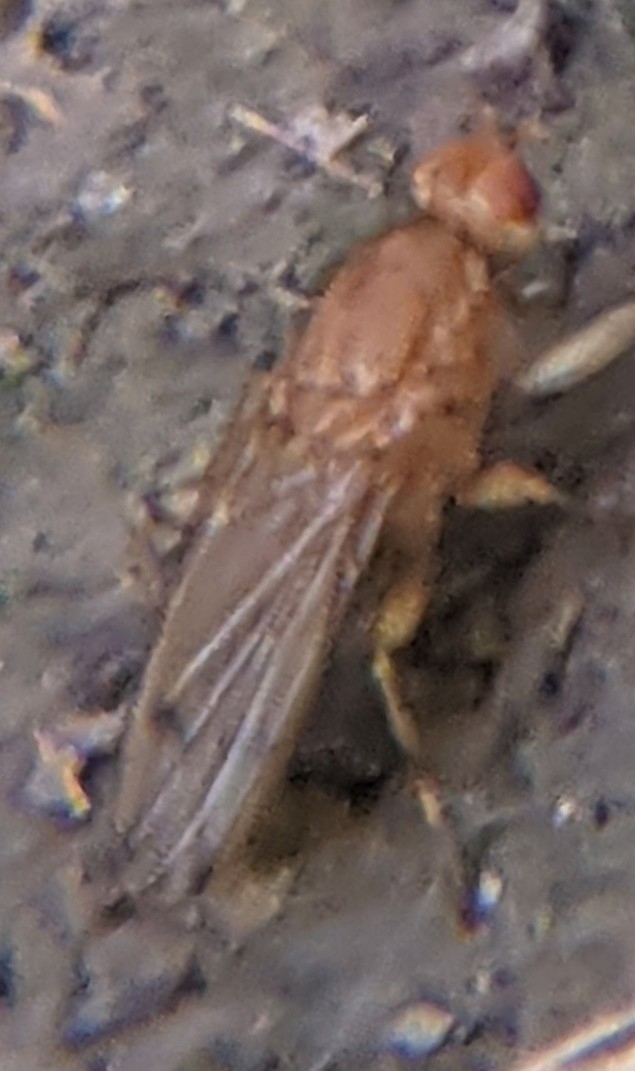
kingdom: Animalia
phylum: Arthropoda
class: Insecta
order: Diptera
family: Heleomyzidae
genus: Amoebaleria
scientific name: Amoebaleria helvola
